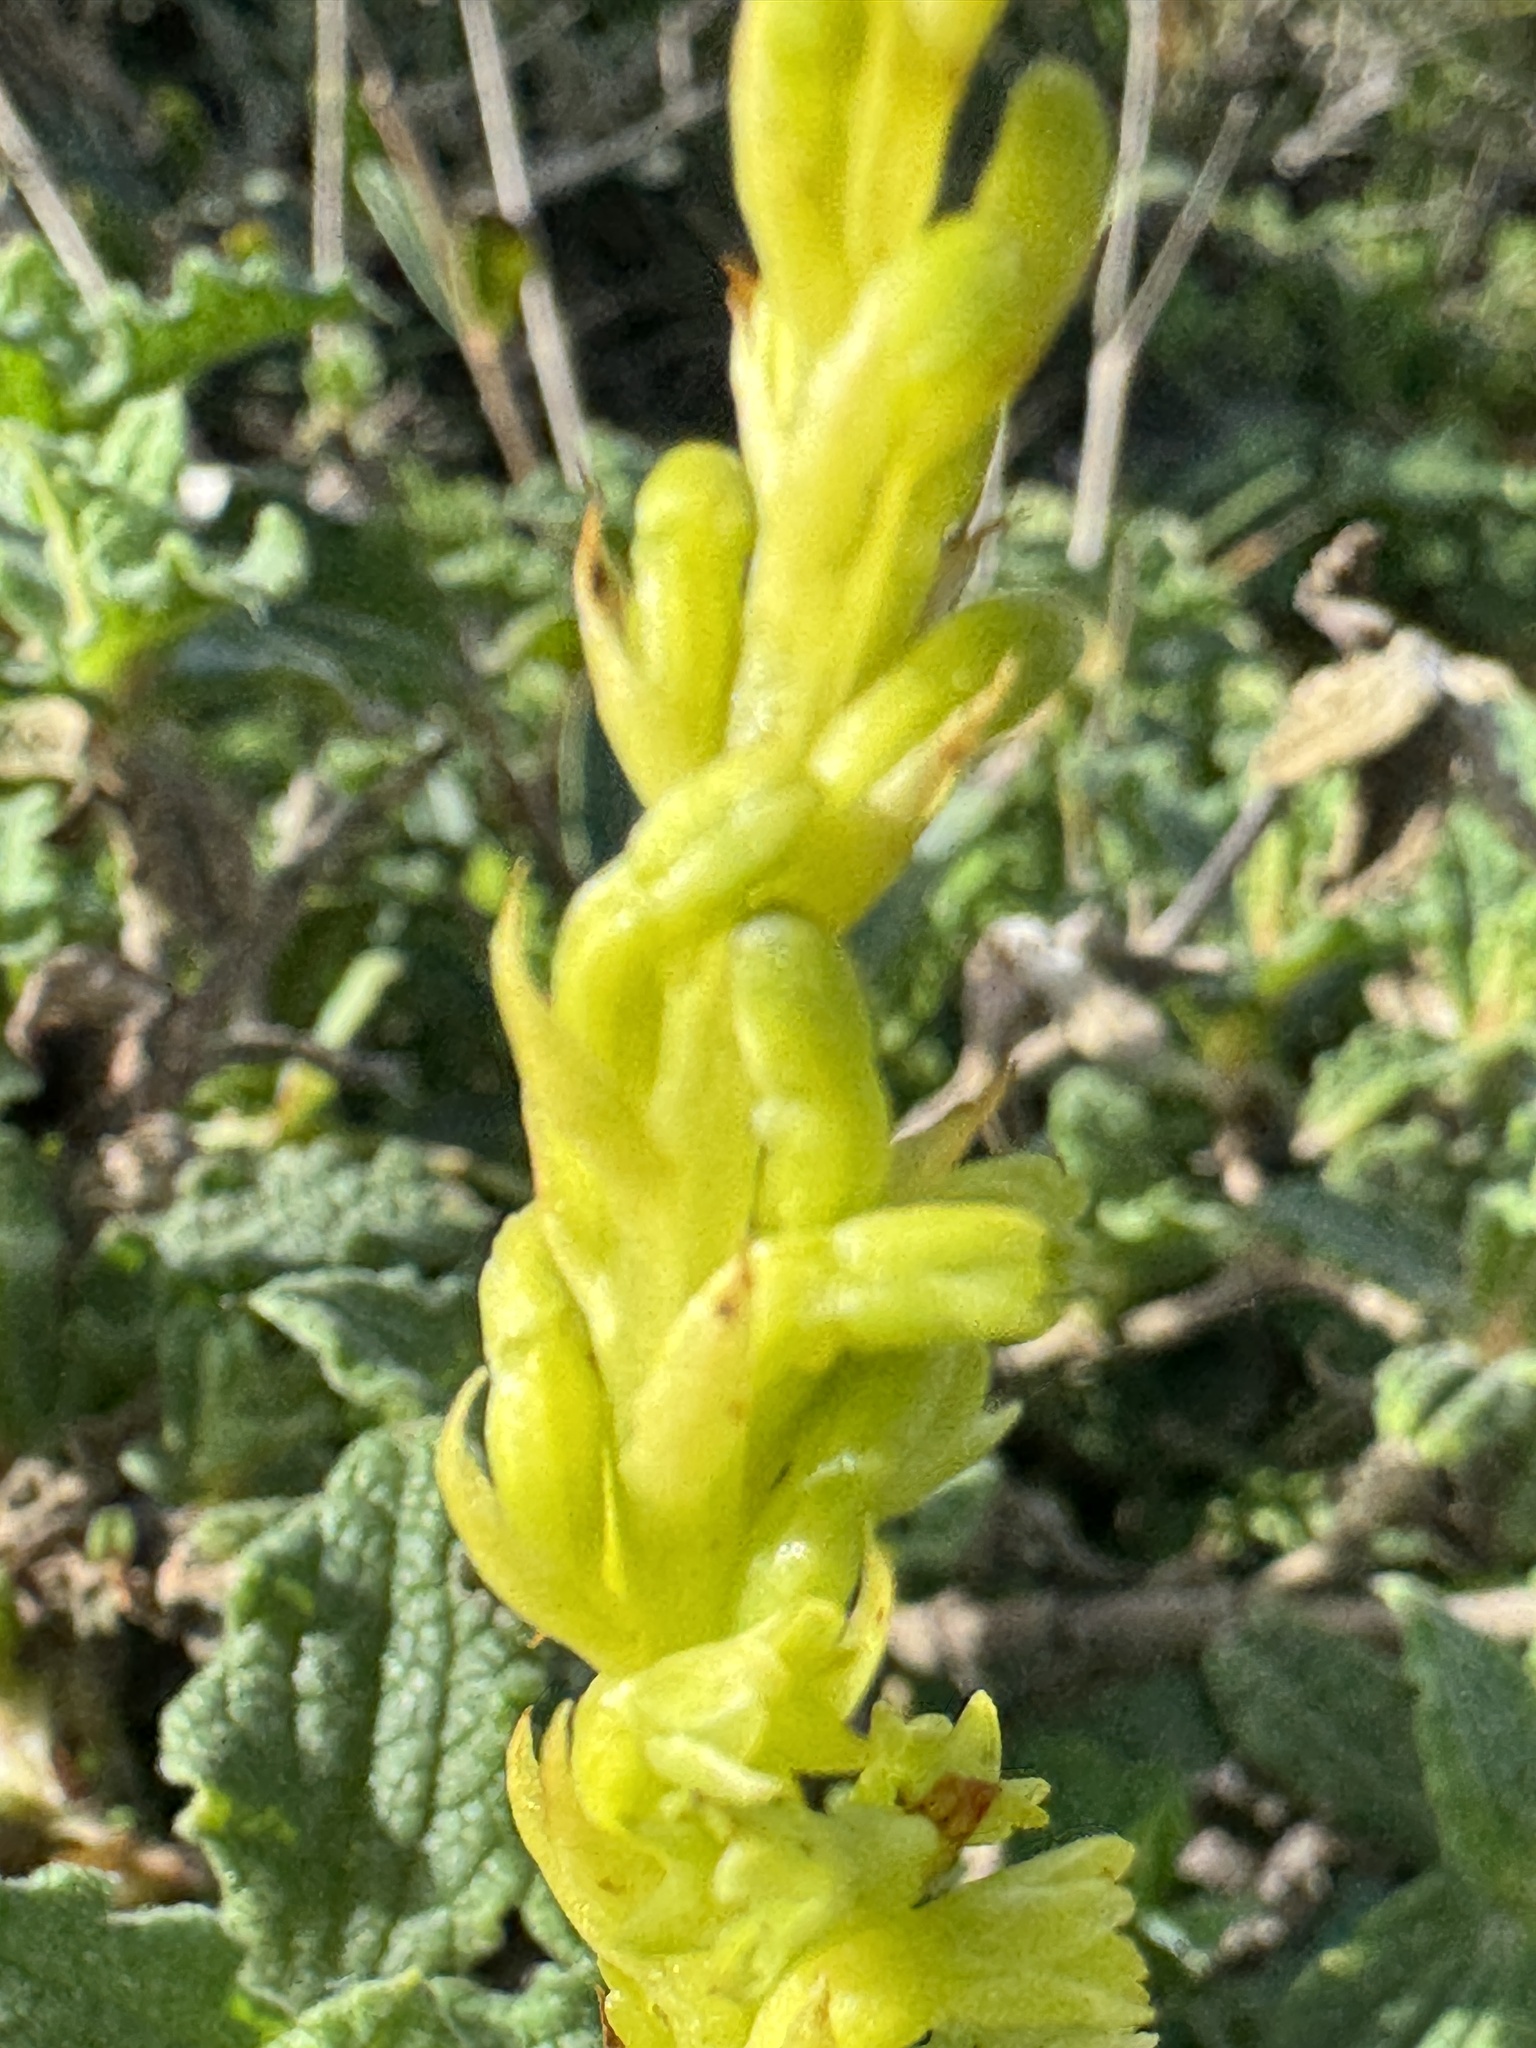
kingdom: Plantae
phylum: Tracheophyta
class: Liliopsida
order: Asparagales
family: Orchidaceae
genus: Gennaria
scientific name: Gennaria diphylla
